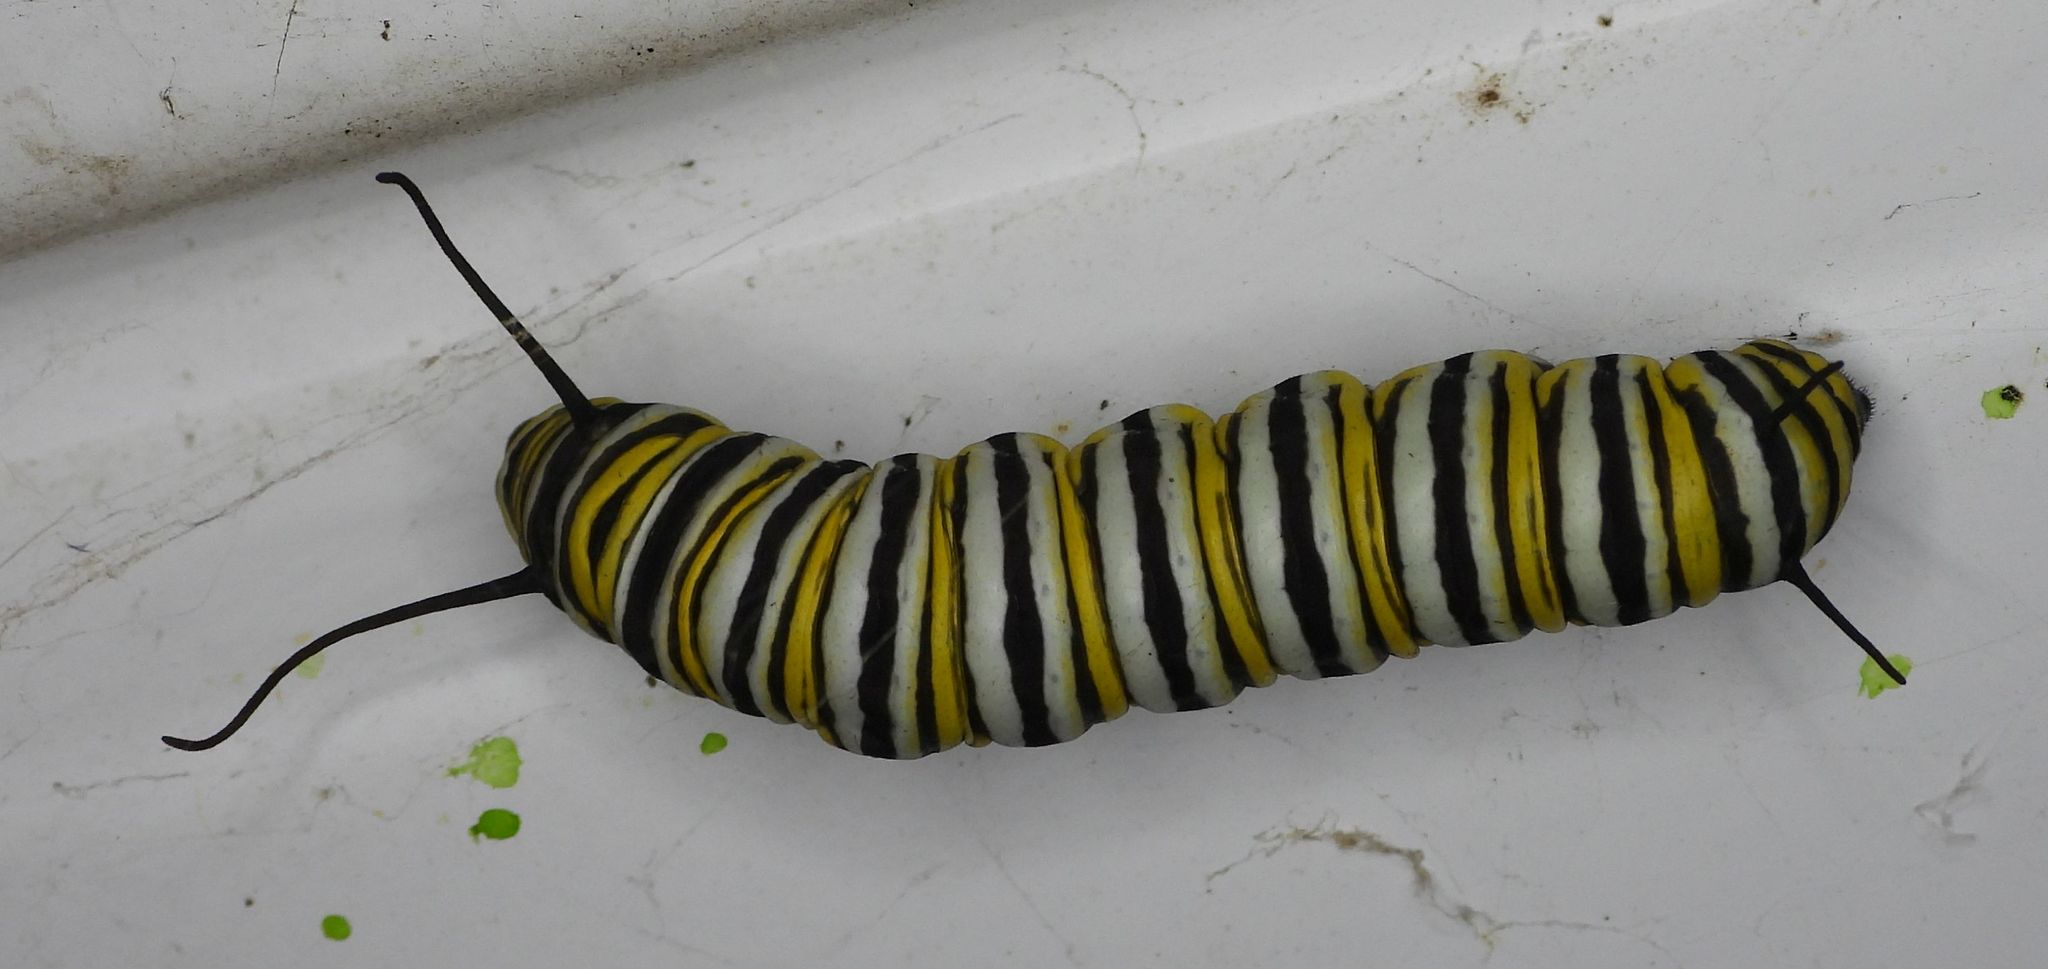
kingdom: Animalia
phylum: Arthropoda
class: Insecta
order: Lepidoptera
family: Nymphalidae
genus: Danaus
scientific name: Danaus plexippus
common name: Monarch
